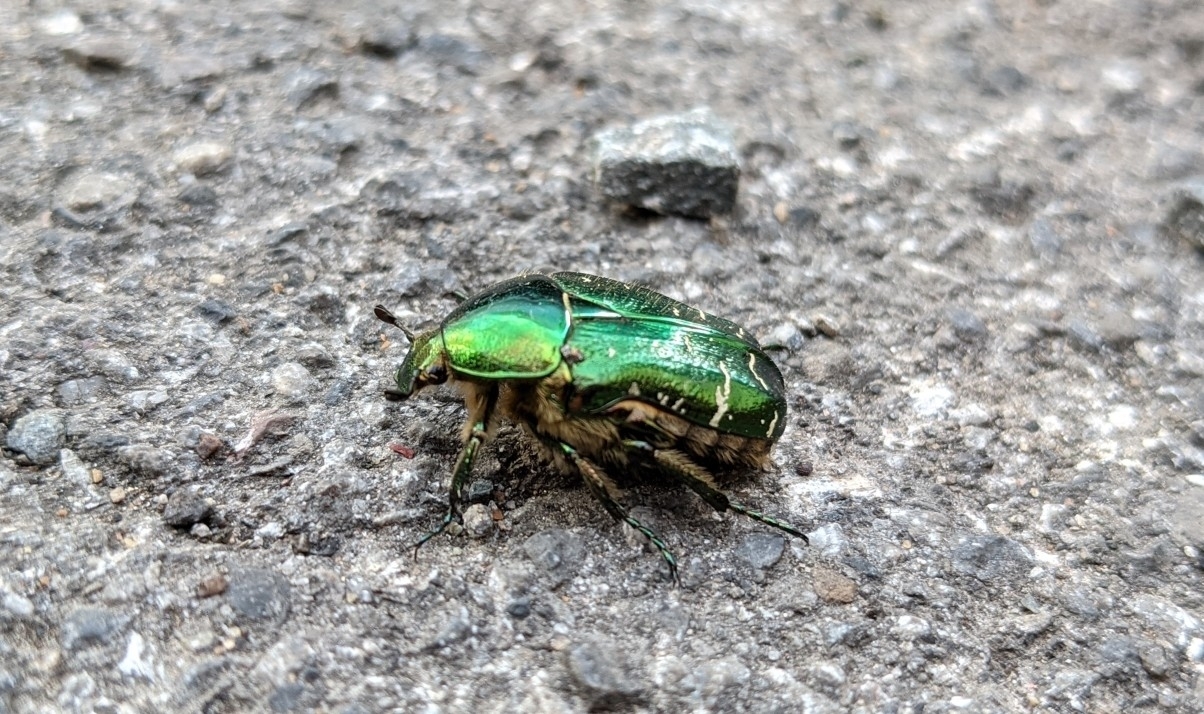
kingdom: Animalia
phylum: Arthropoda
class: Insecta
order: Coleoptera
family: Scarabaeidae
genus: Cetonia
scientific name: Cetonia aurata
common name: Rose chafer
